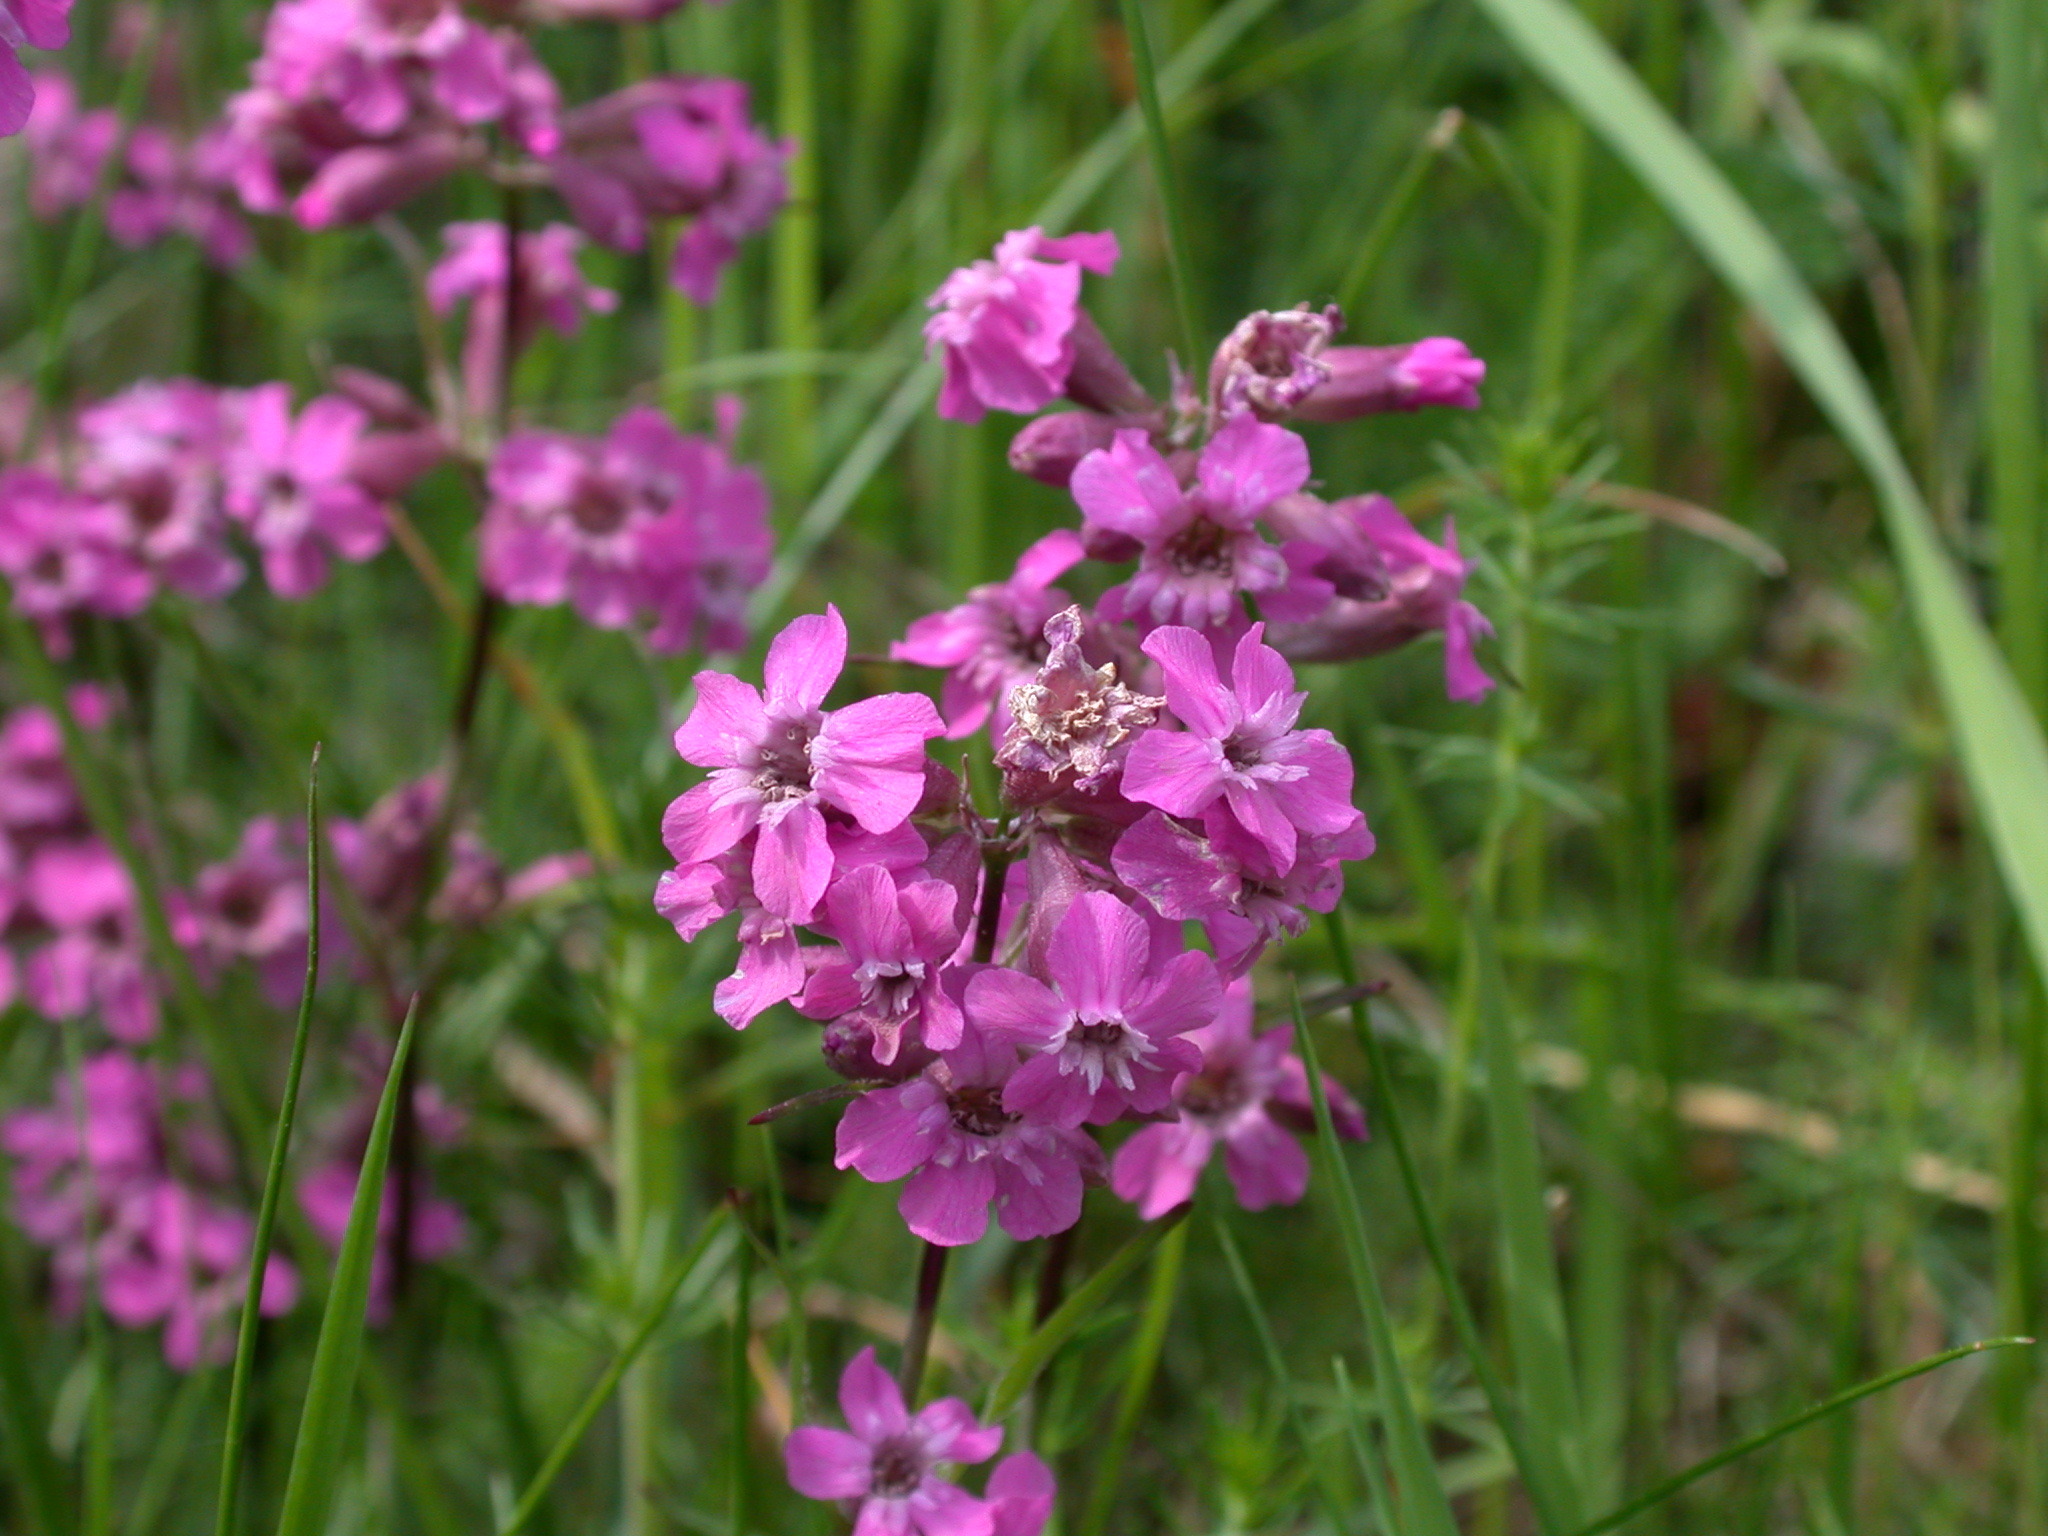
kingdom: Plantae
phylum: Tracheophyta
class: Magnoliopsida
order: Caryophyllales
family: Caryophyllaceae
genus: Viscaria
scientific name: Viscaria vulgaris
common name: Clammy campion
